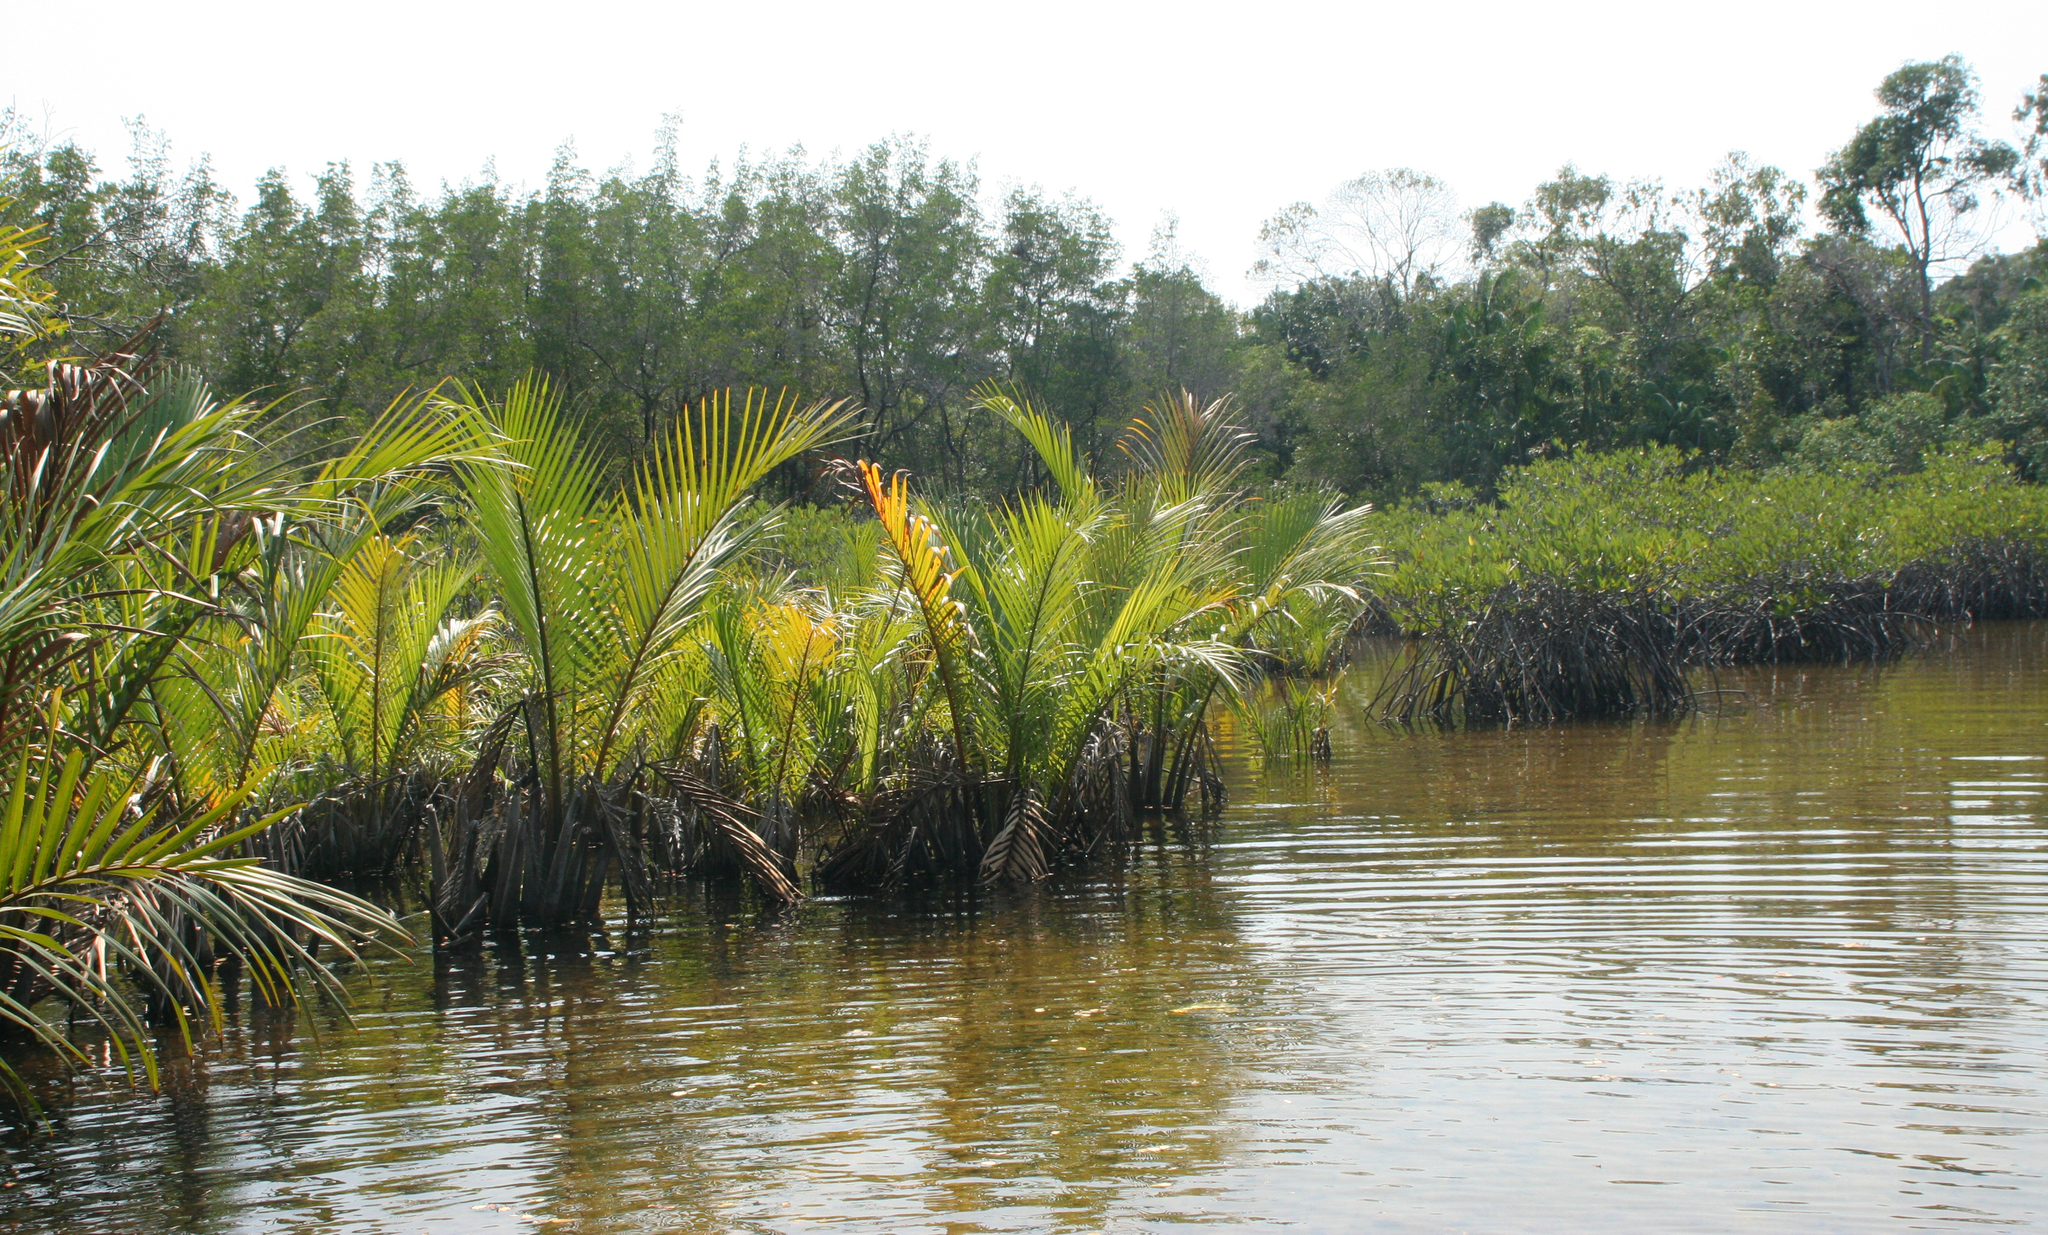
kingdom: Plantae
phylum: Tracheophyta
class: Liliopsida
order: Arecales
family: Arecaceae
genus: Nypa
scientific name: Nypa fruticans
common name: Mangrove palm
